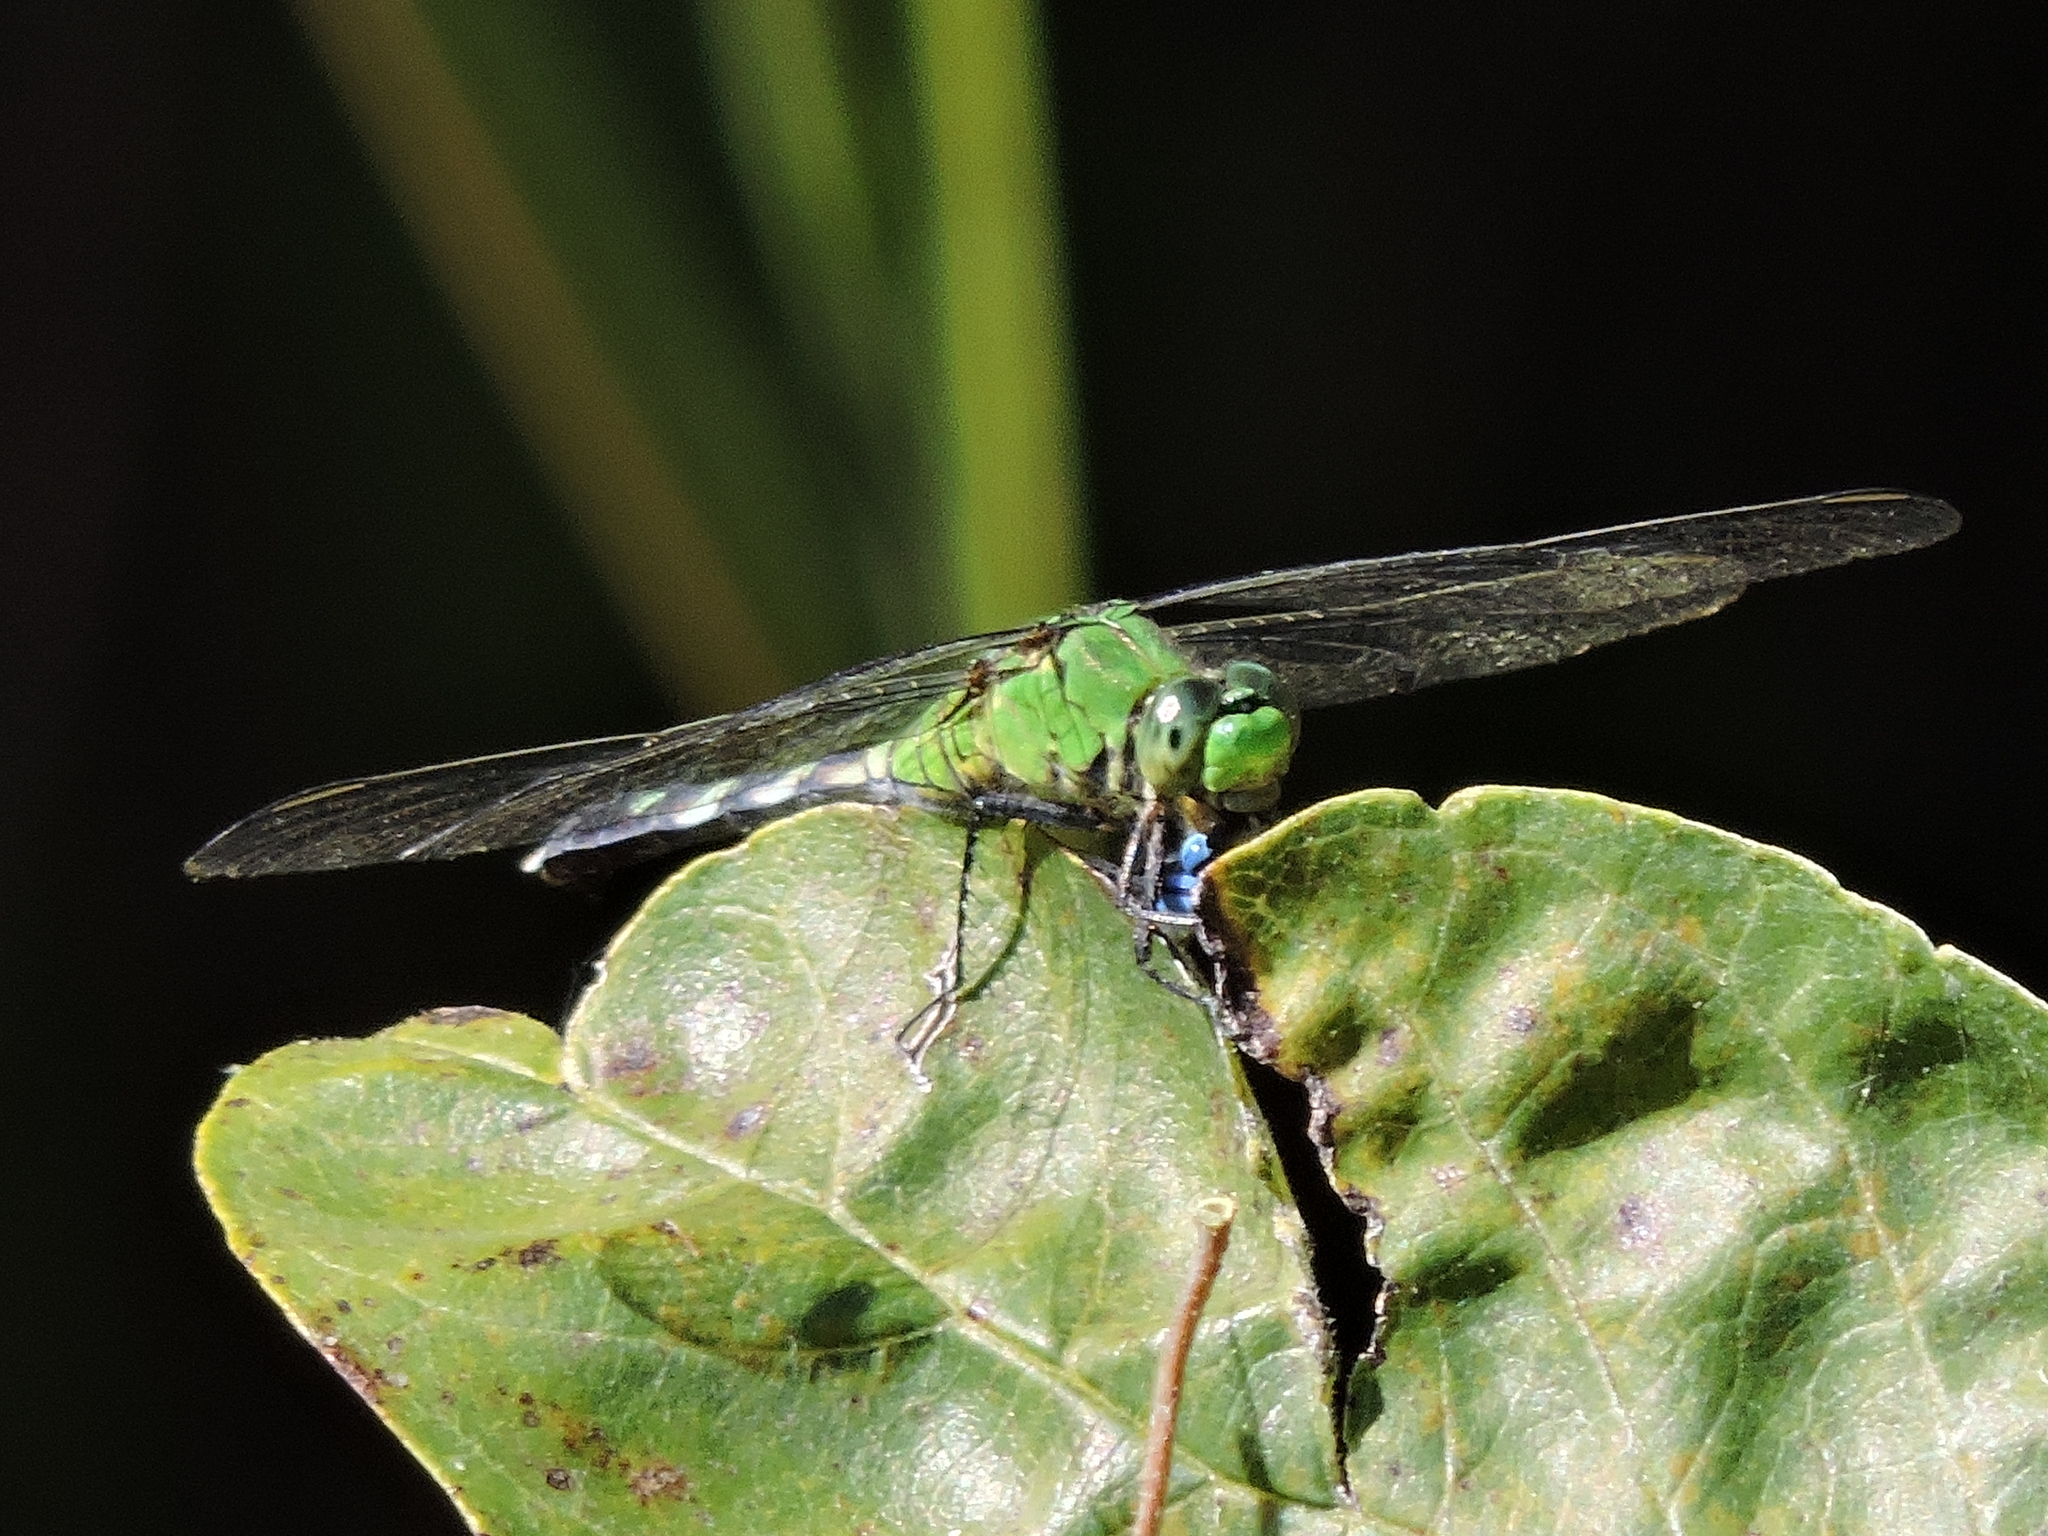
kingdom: Animalia
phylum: Arthropoda
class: Insecta
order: Odonata
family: Libellulidae
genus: Erythemis
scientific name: Erythemis simplicicollis
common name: Eastern pondhawk
